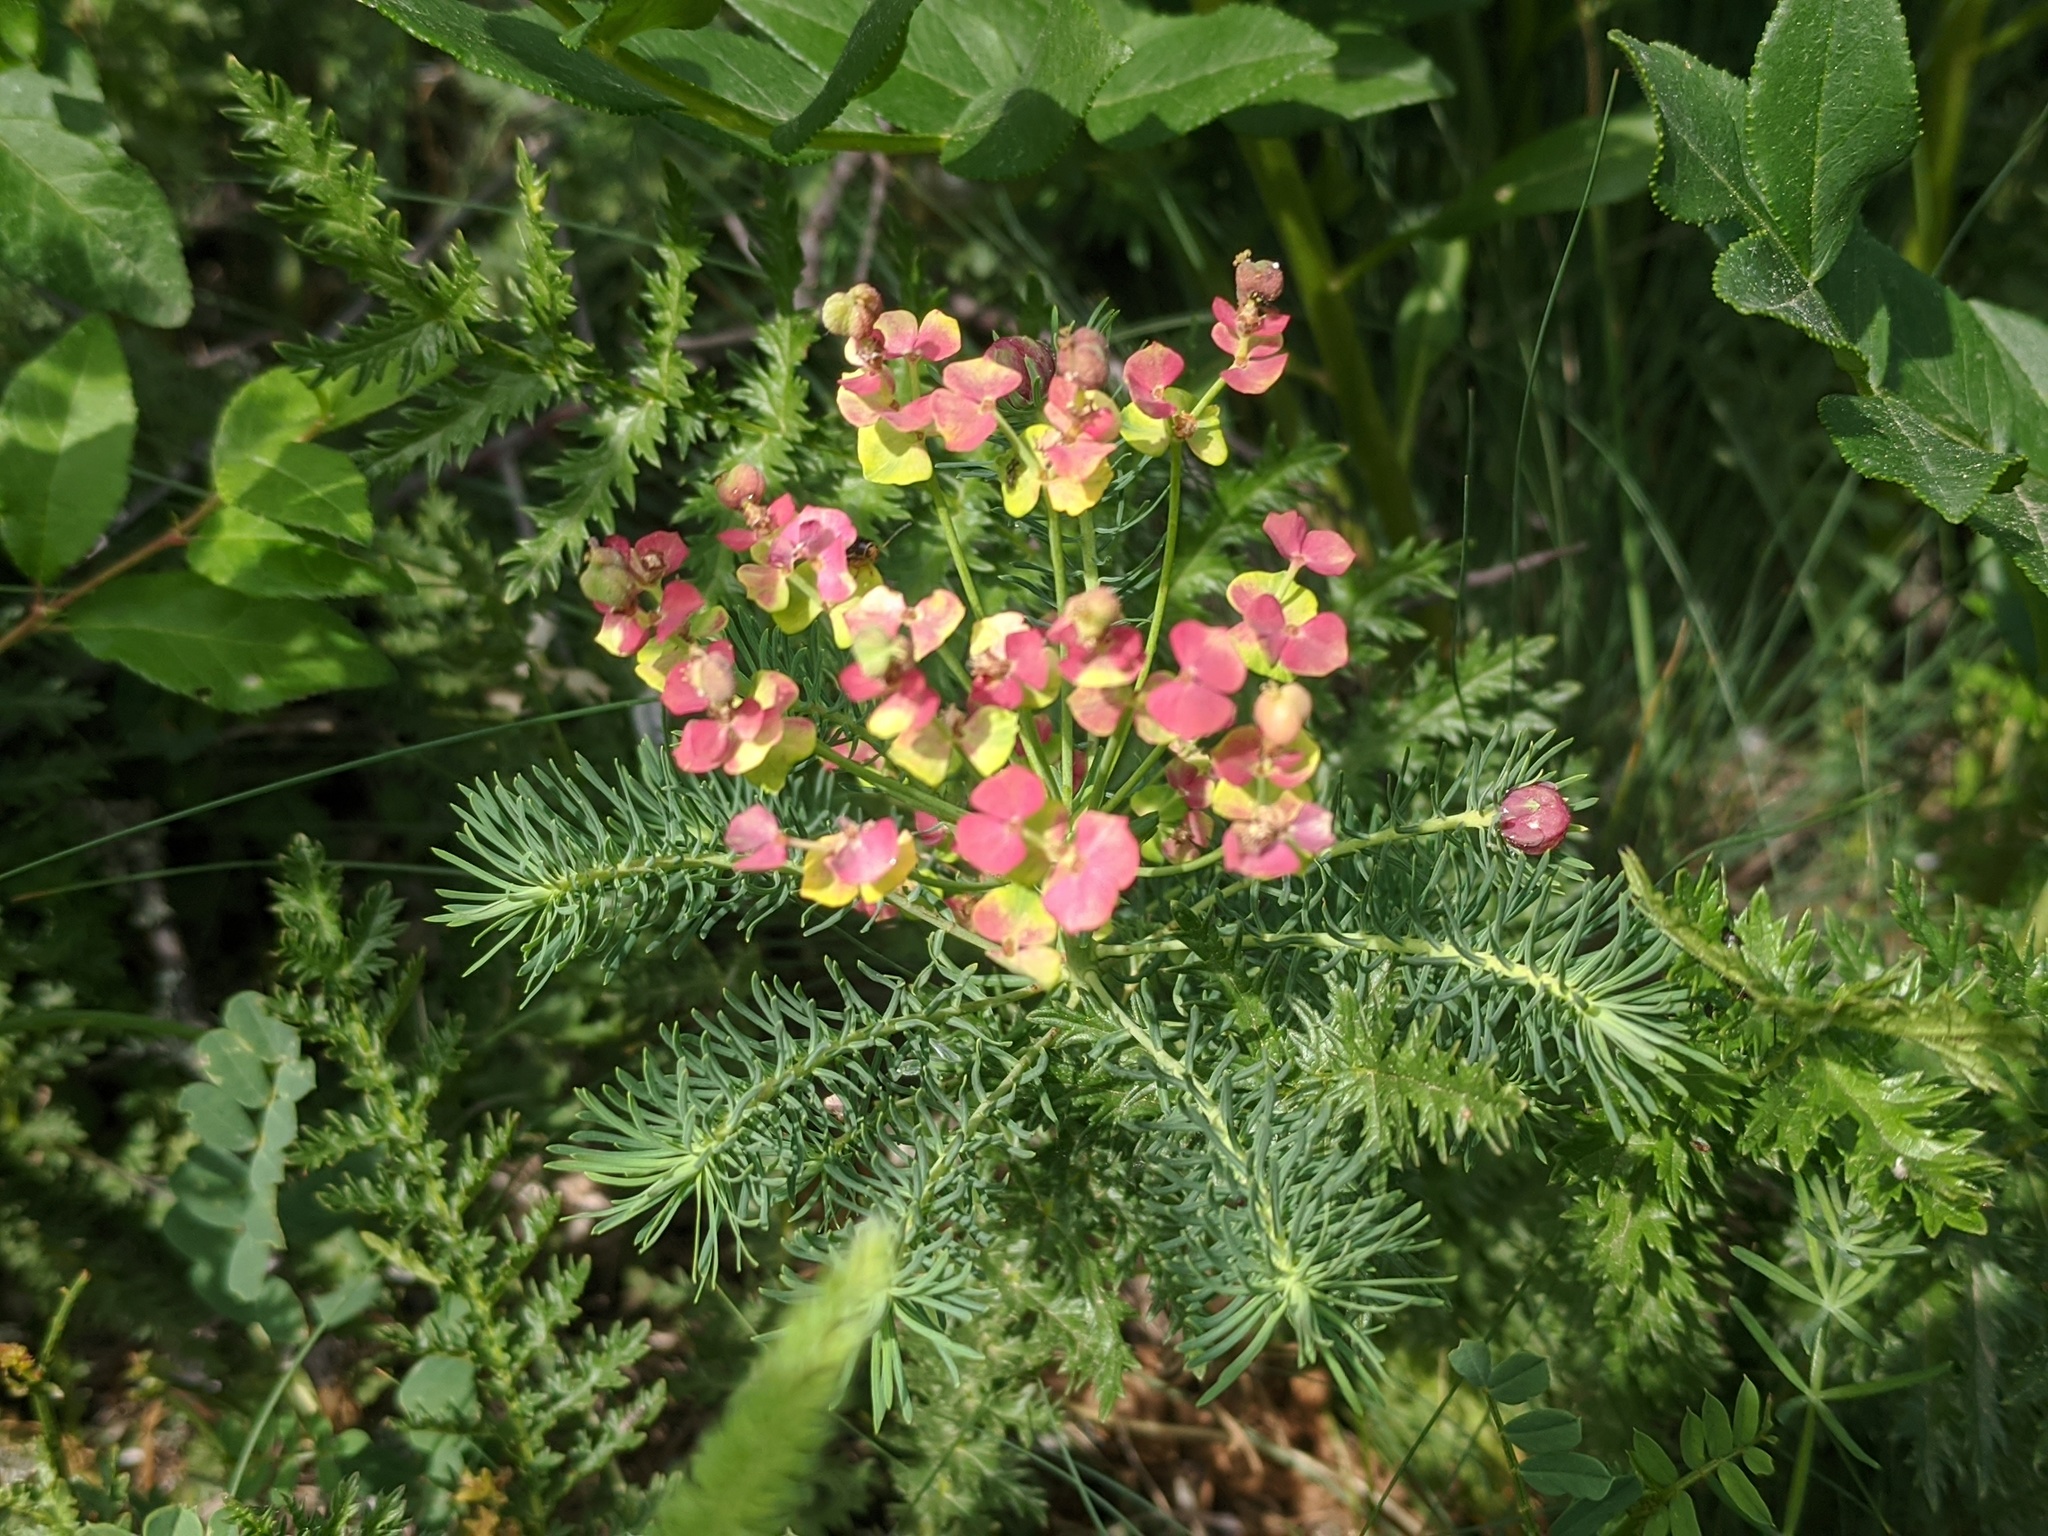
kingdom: Plantae
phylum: Tracheophyta
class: Magnoliopsida
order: Malpighiales
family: Euphorbiaceae
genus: Euphorbia
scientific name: Euphorbia cyparissias
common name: Cypress spurge
